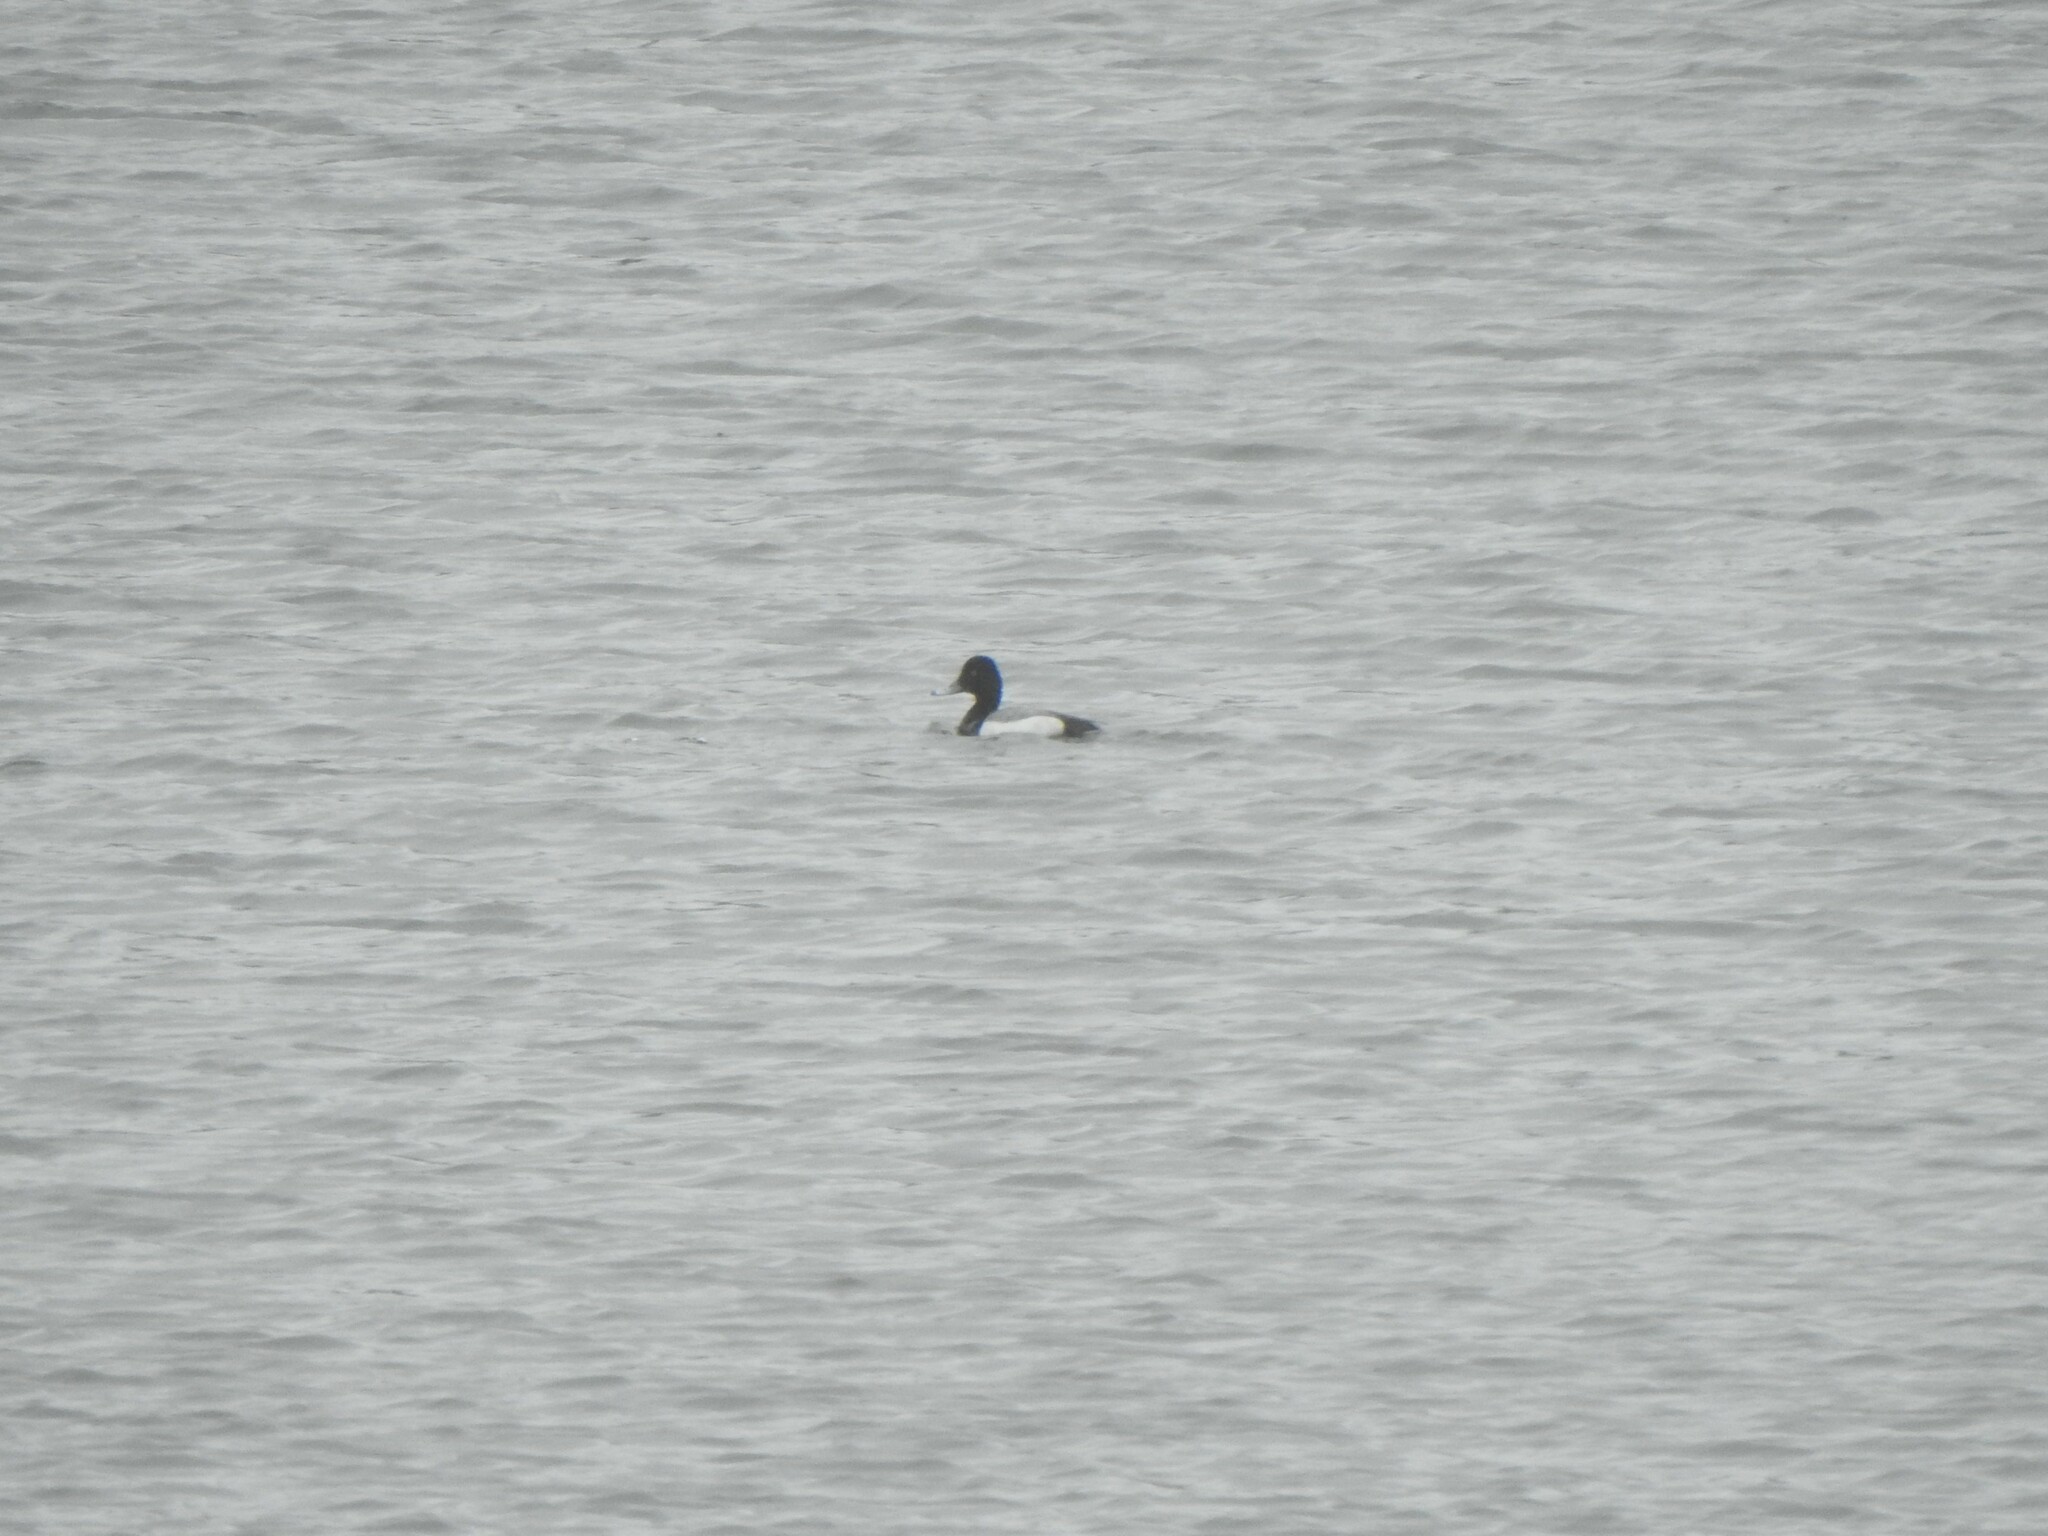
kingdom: Animalia
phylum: Chordata
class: Aves
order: Anseriformes
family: Anatidae
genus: Aythya
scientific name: Aythya affinis
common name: Lesser scaup
